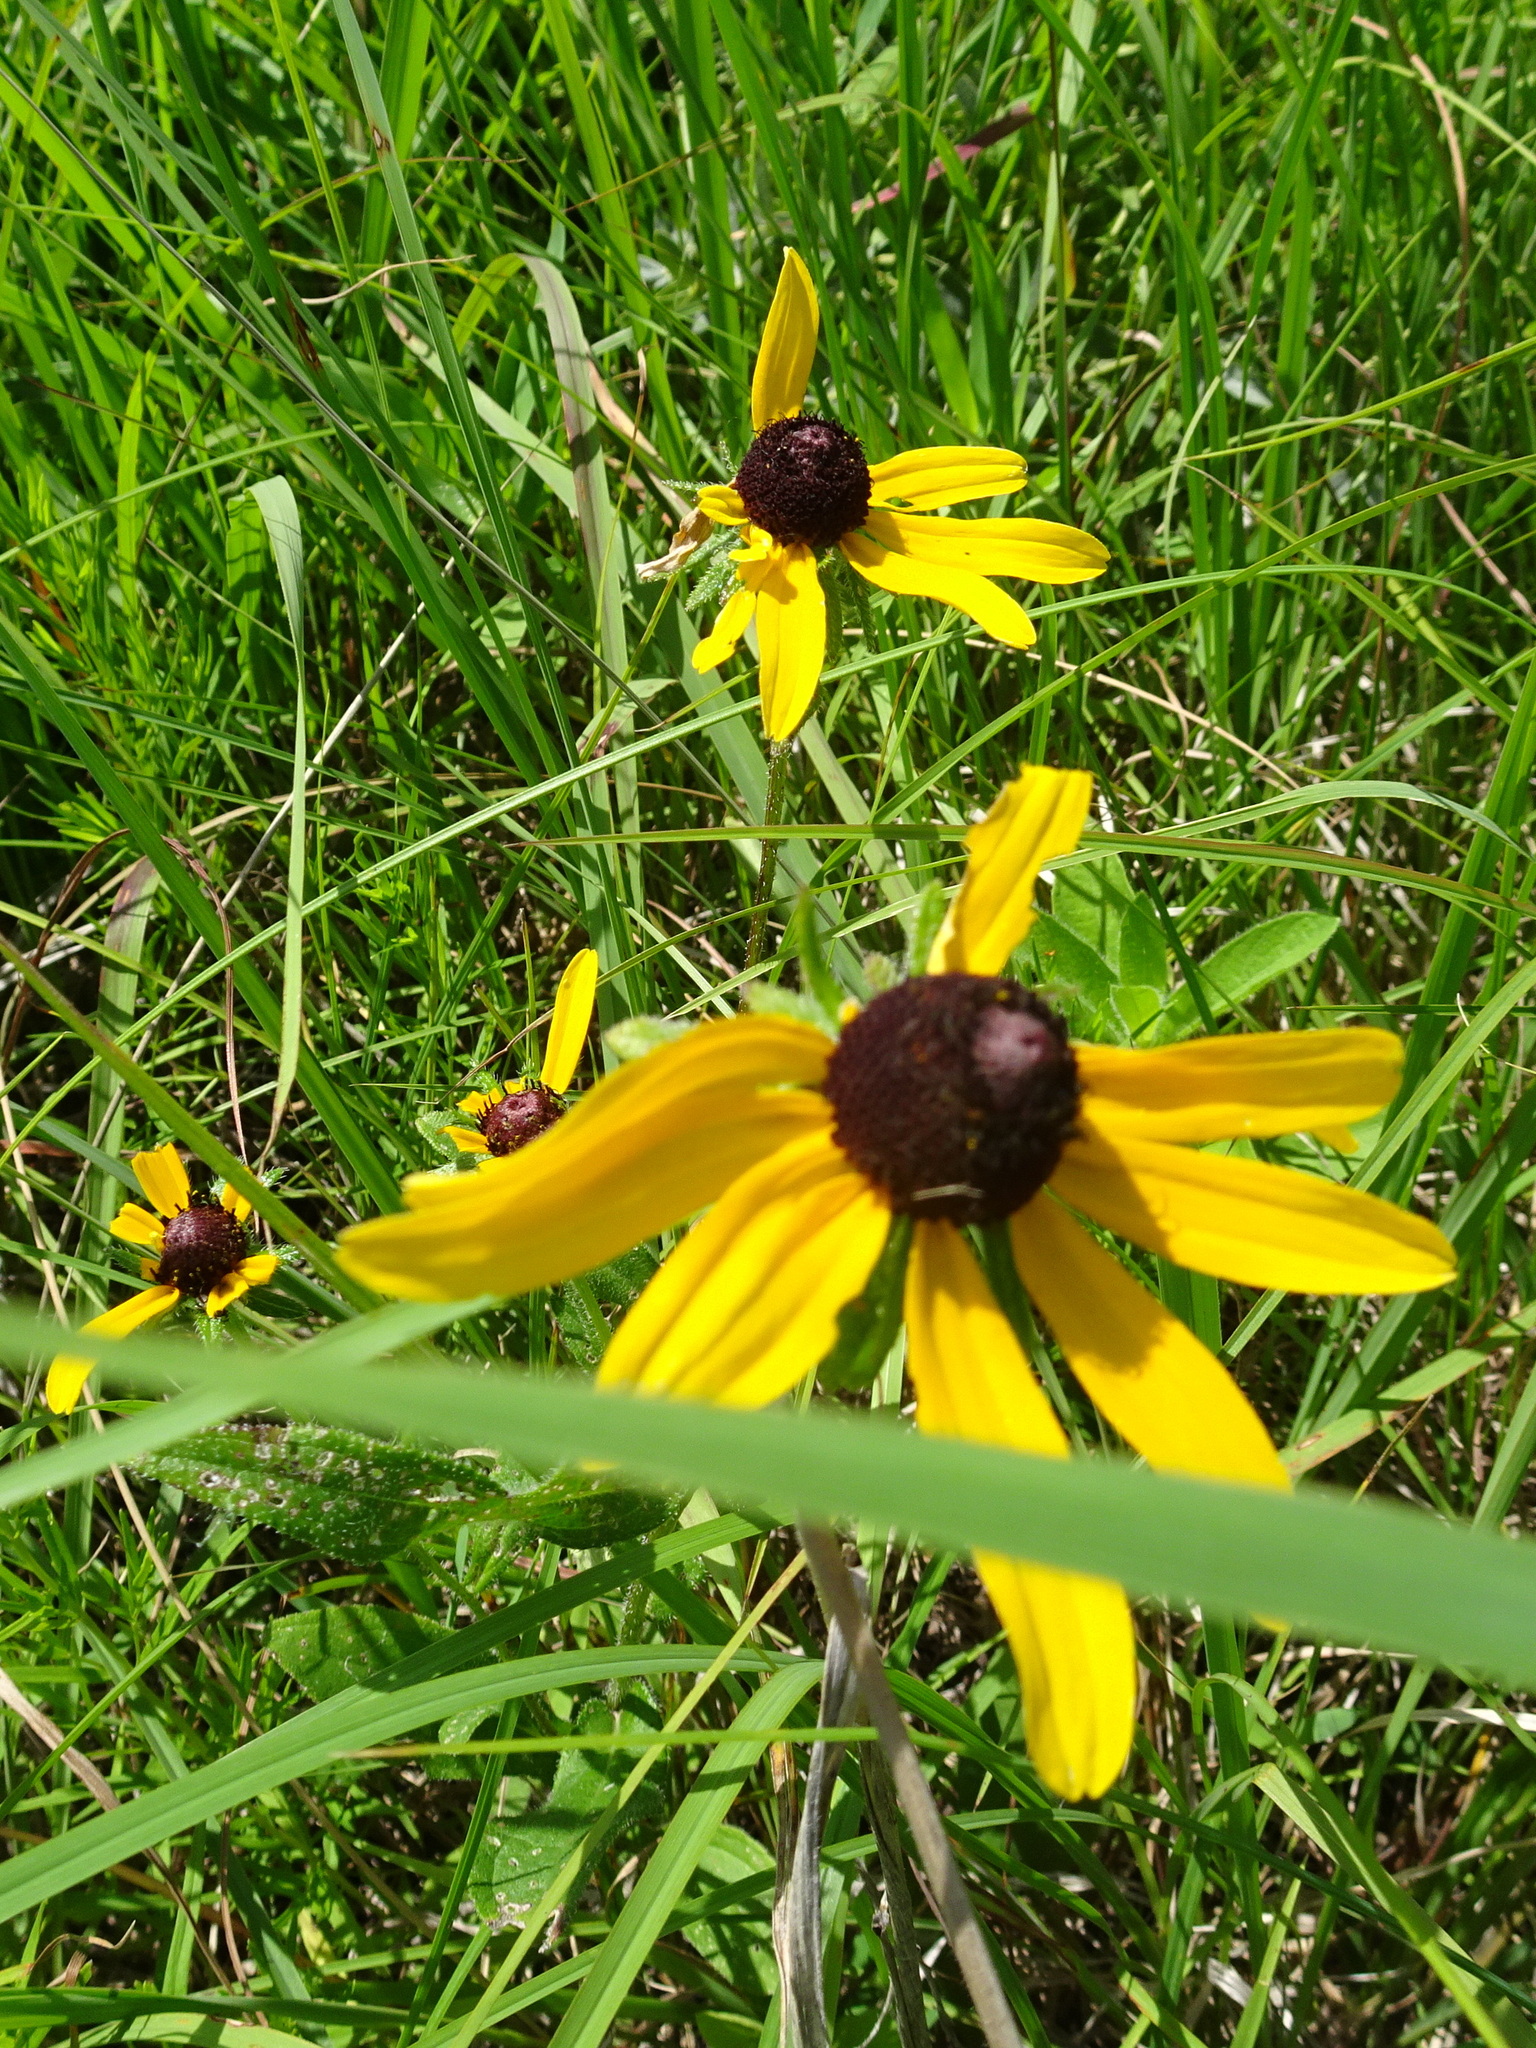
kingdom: Plantae
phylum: Tracheophyta
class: Magnoliopsida
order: Asterales
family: Asteraceae
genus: Rudbeckia
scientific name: Rudbeckia hirta
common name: Black-eyed-susan
